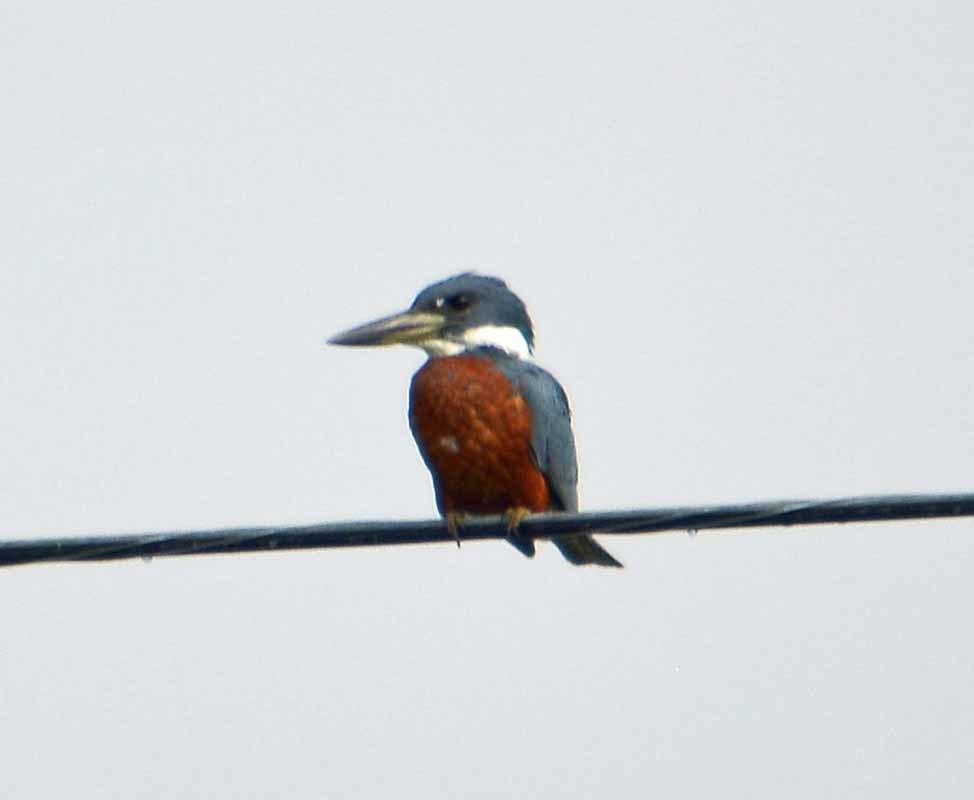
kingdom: Animalia
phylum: Chordata
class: Aves
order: Coraciiformes
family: Alcedinidae
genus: Megaceryle
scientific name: Megaceryle torquata
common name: Ringed kingfisher
